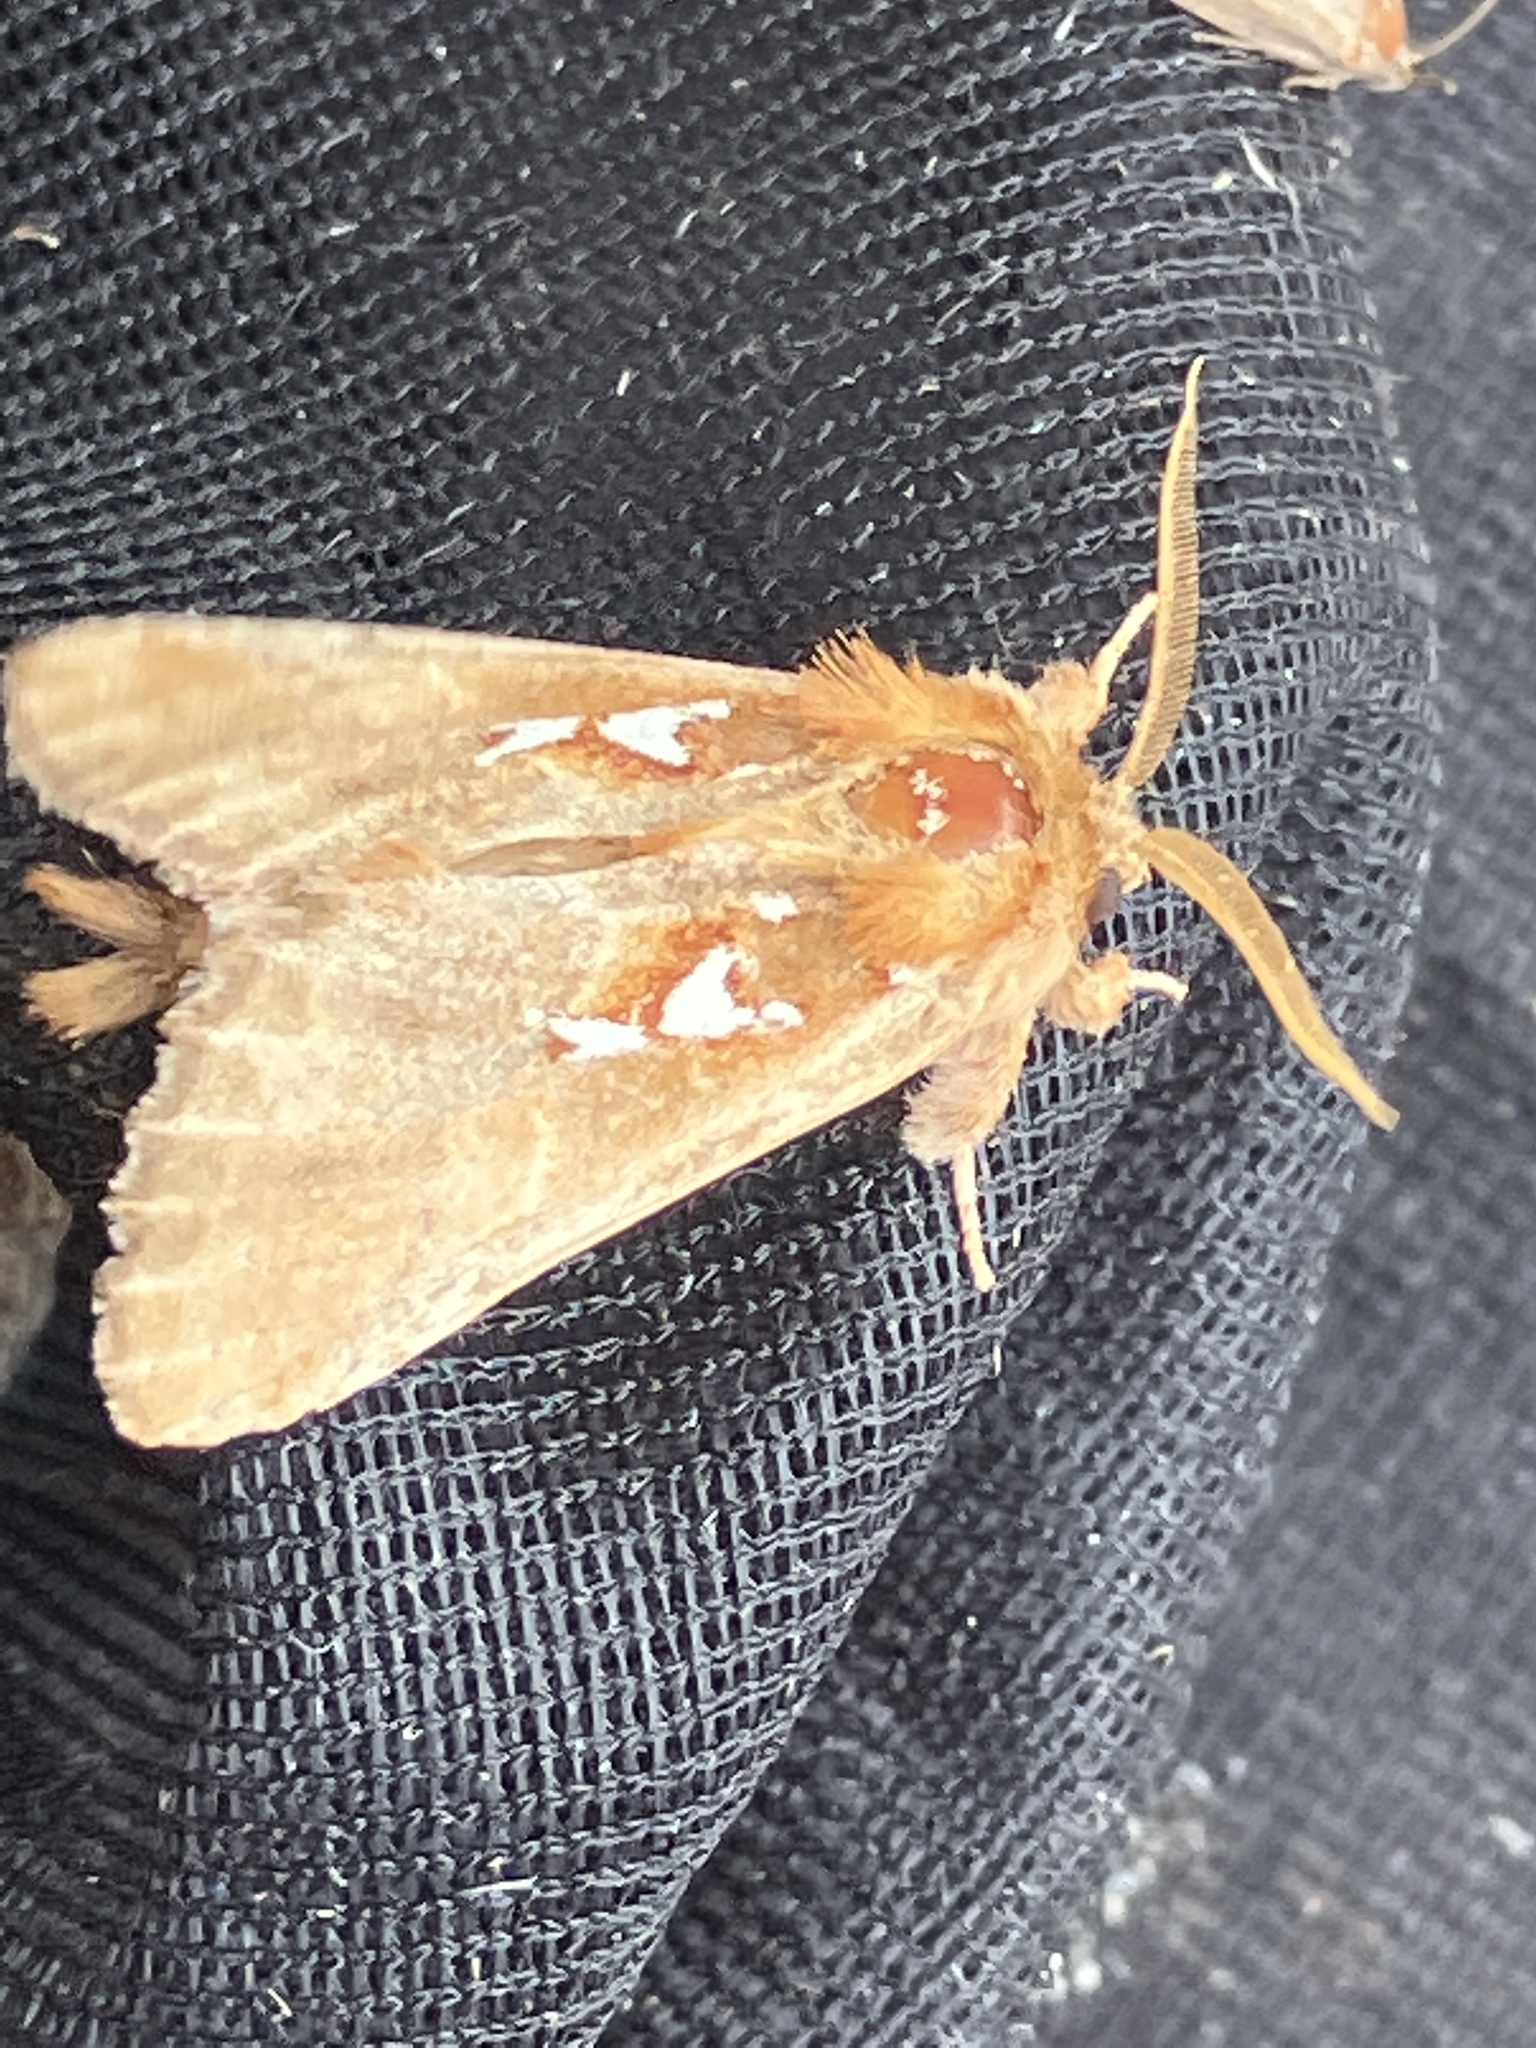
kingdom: Animalia
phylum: Arthropoda
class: Insecta
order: Lepidoptera
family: Notodontidae
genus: Spatalia
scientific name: Spatalia argentina
